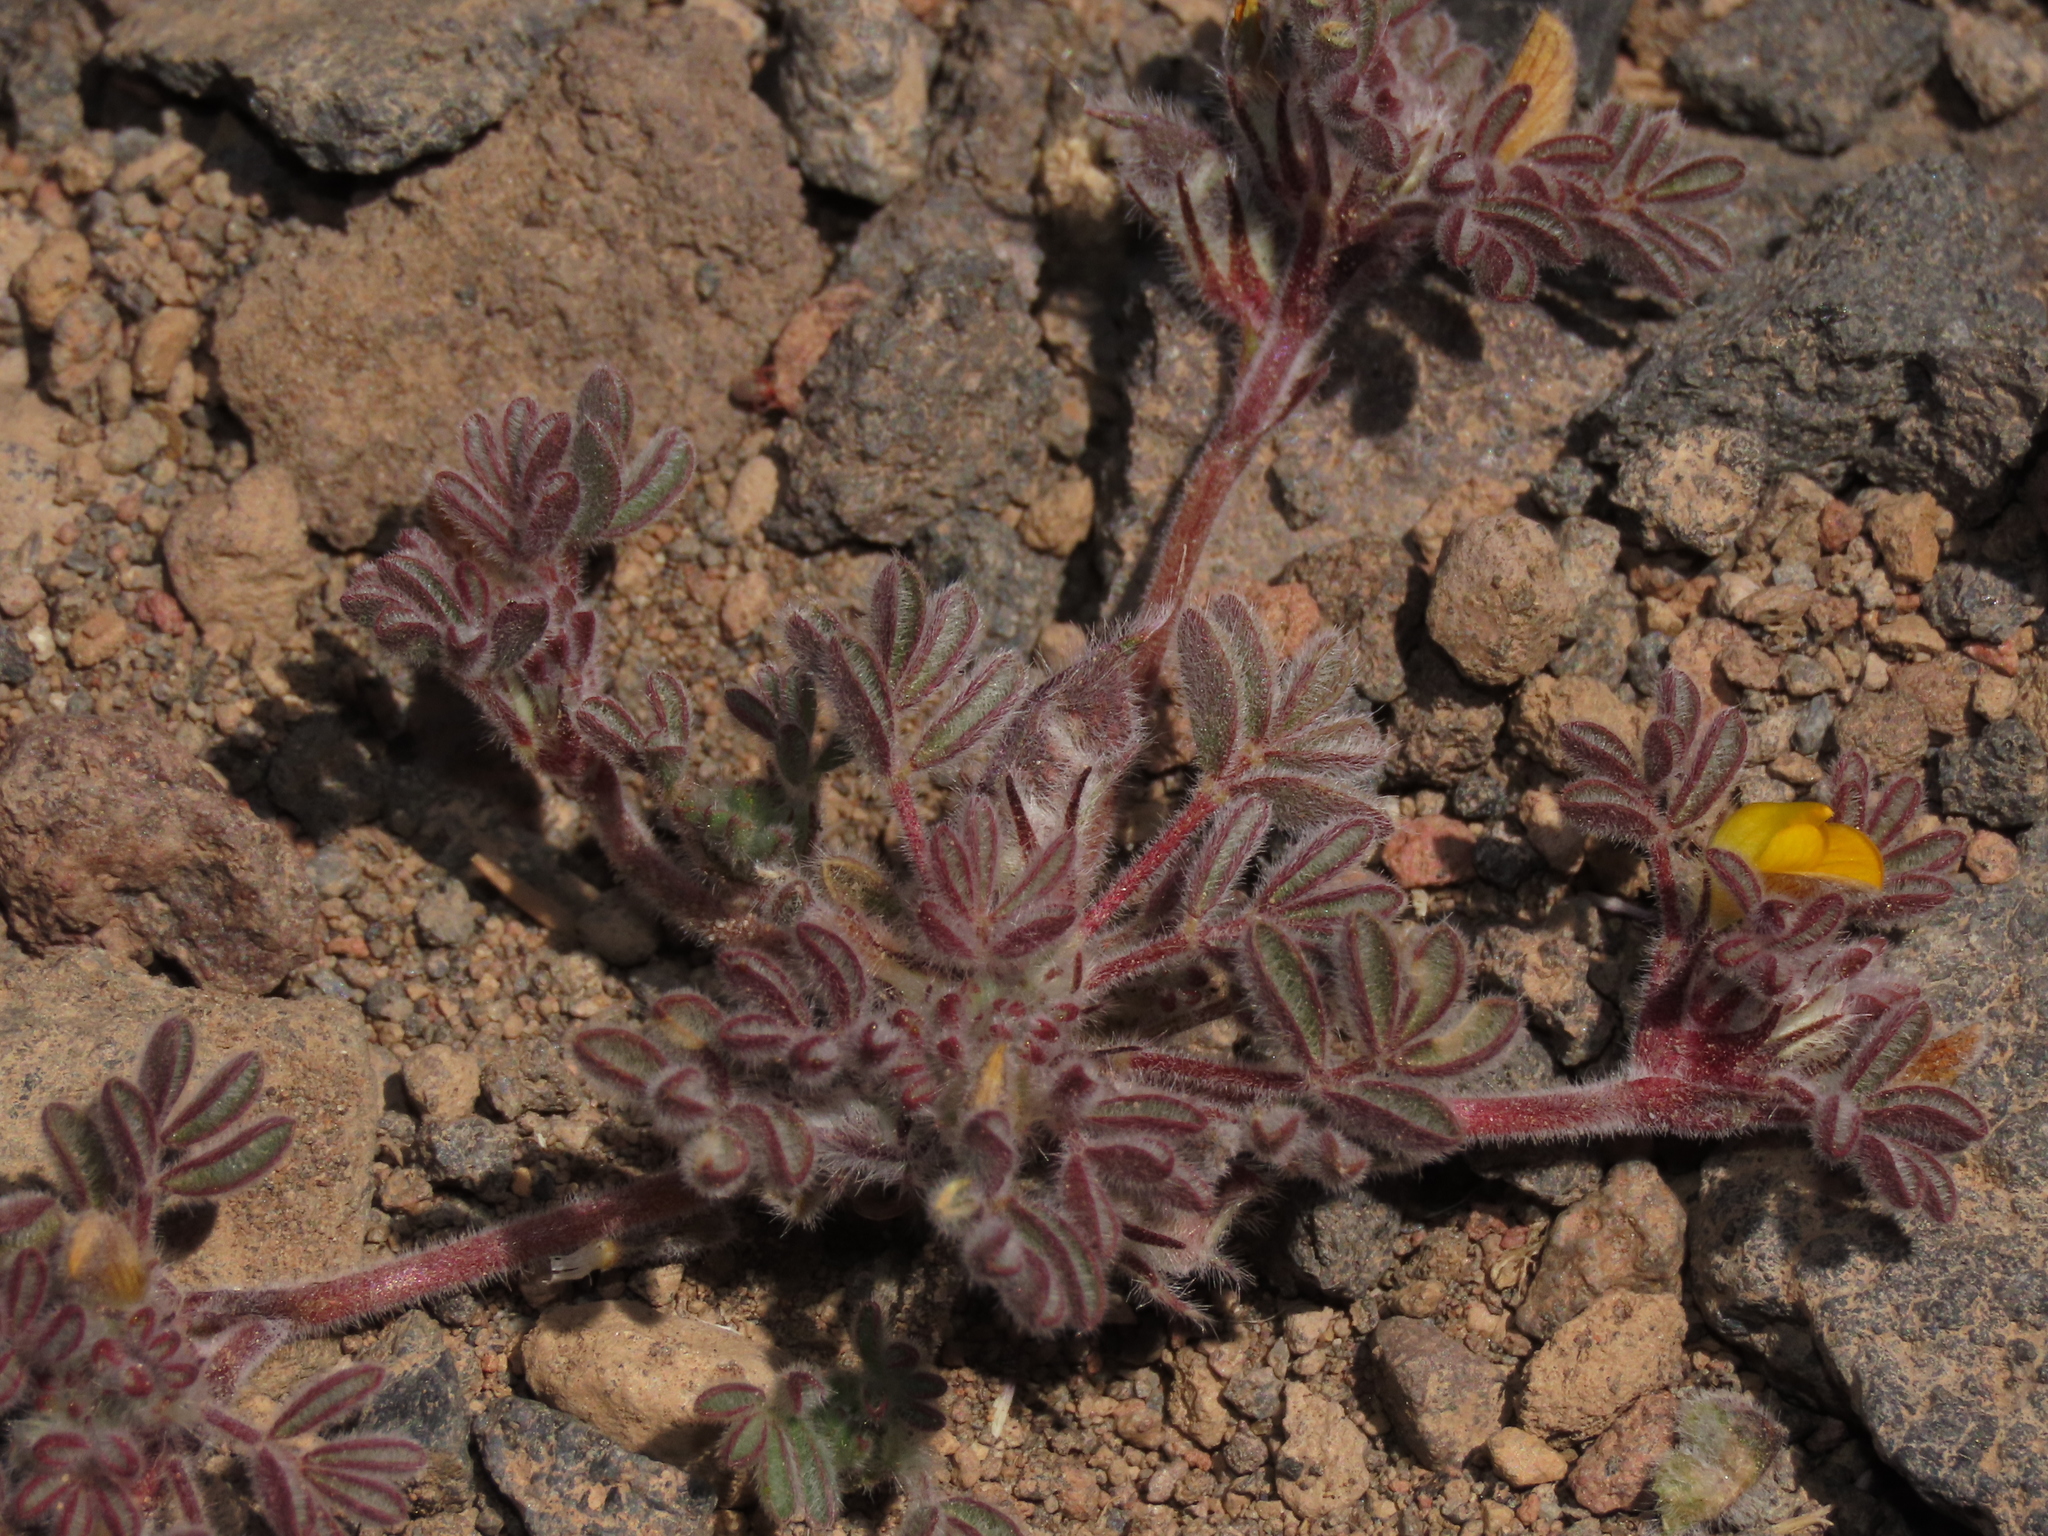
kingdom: Plantae
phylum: Tracheophyta
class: Magnoliopsida
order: Fabales
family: Fabaceae
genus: Adesmia
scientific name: Adesmia capitellata
